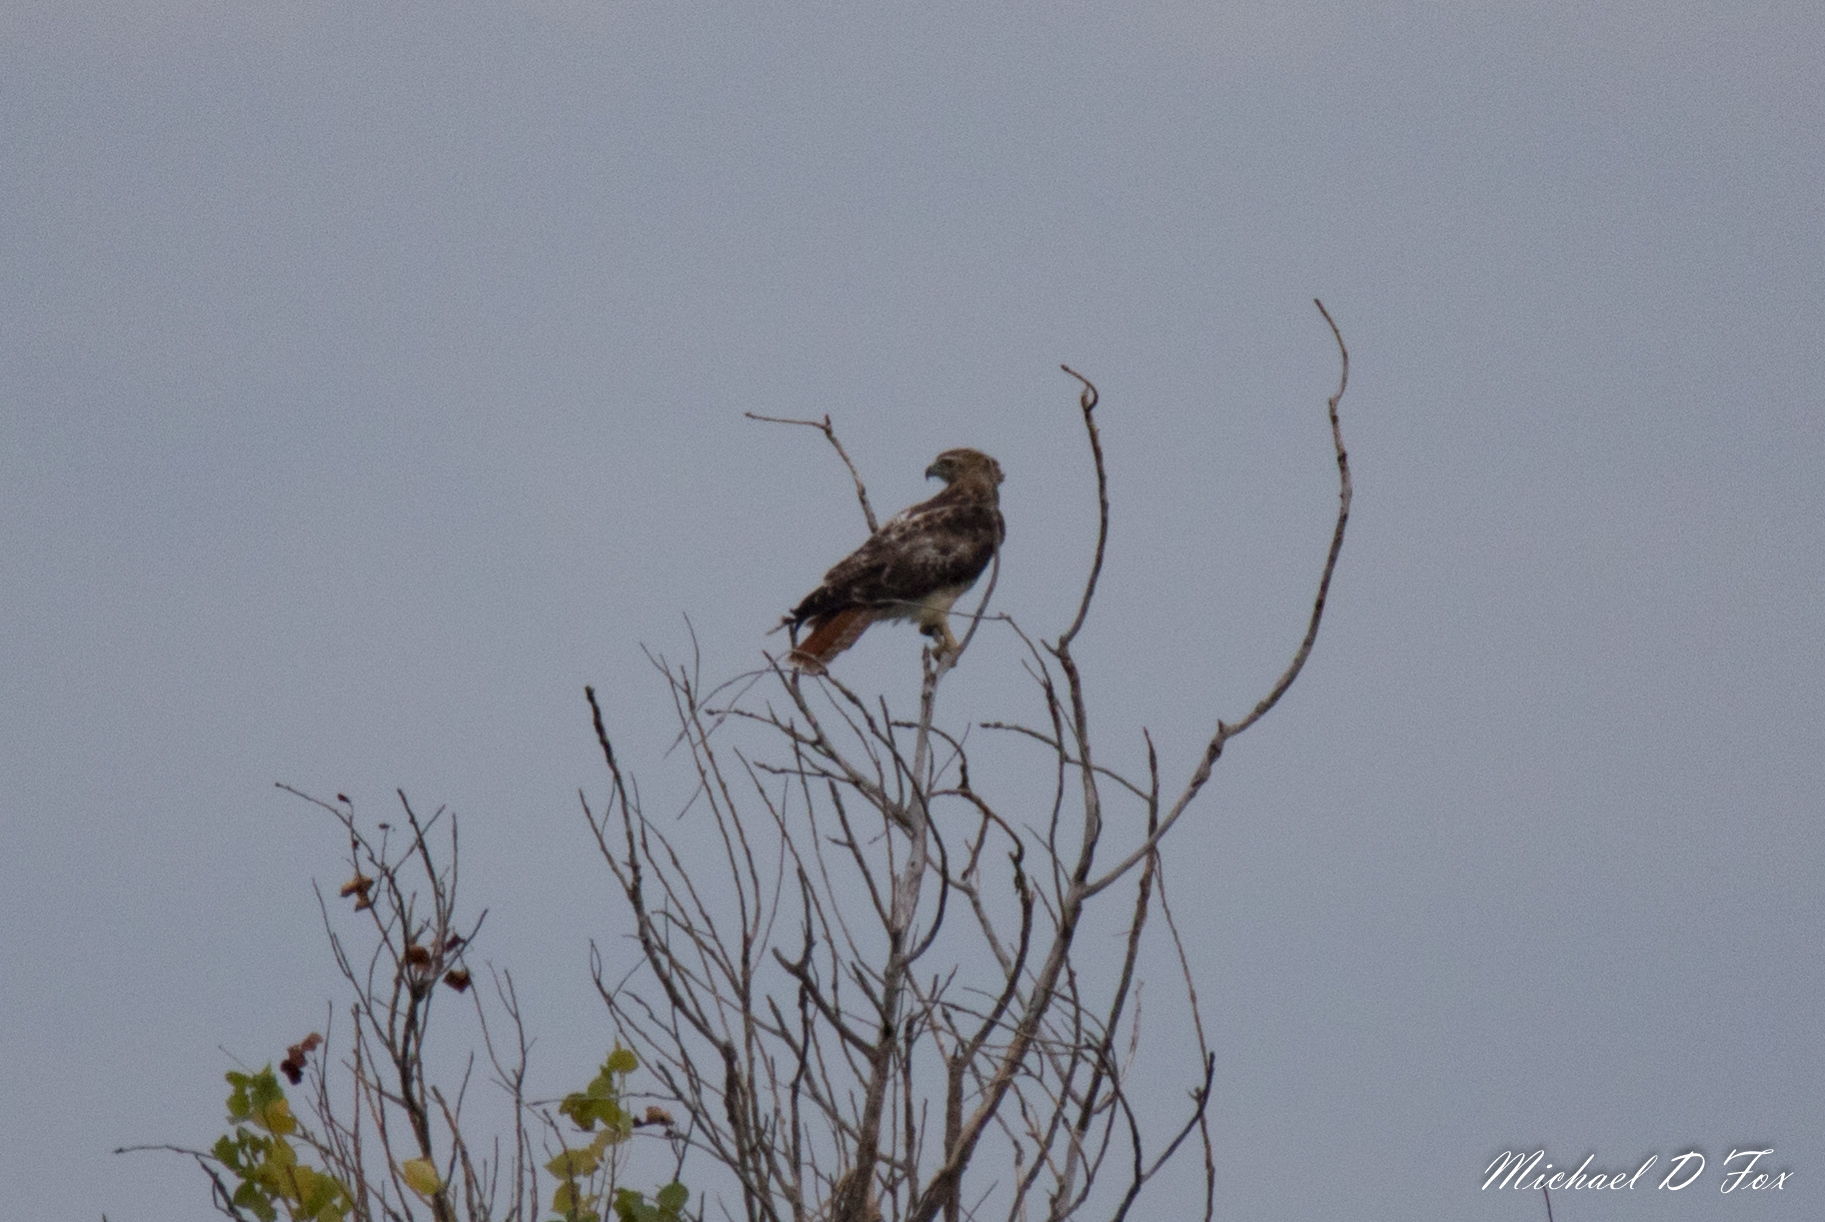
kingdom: Animalia
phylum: Chordata
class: Aves
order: Accipitriformes
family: Accipitridae
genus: Buteo
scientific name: Buteo jamaicensis
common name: Red-tailed hawk
